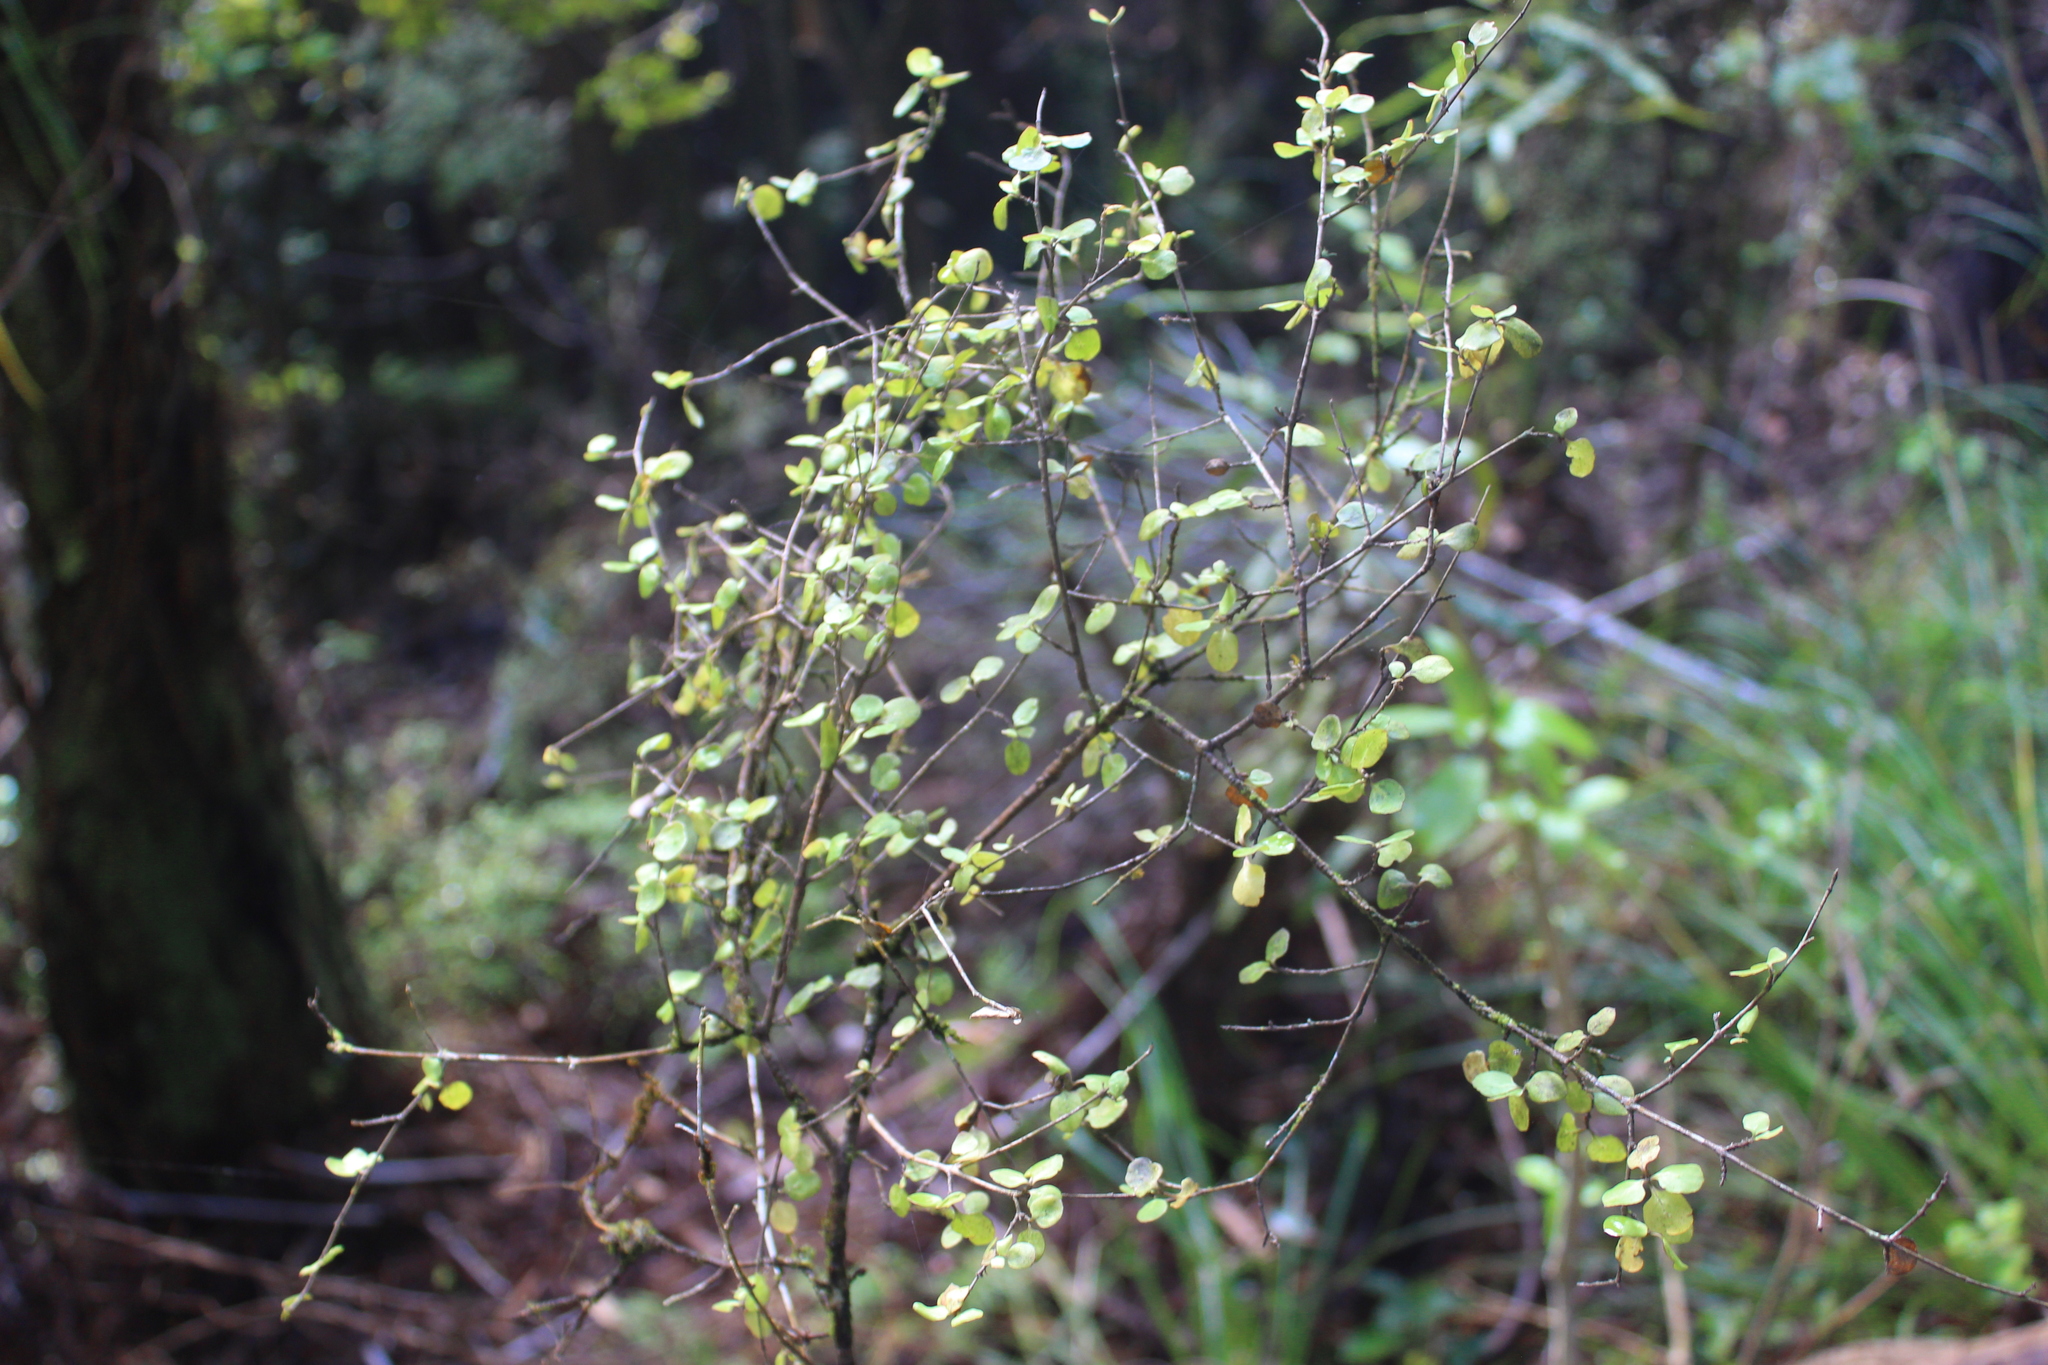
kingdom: Plantae
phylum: Tracheophyta
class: Magnoliopsida
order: Gentianales
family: Rubiaceae
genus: Coprosma
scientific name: Coprosma rhamnoides
